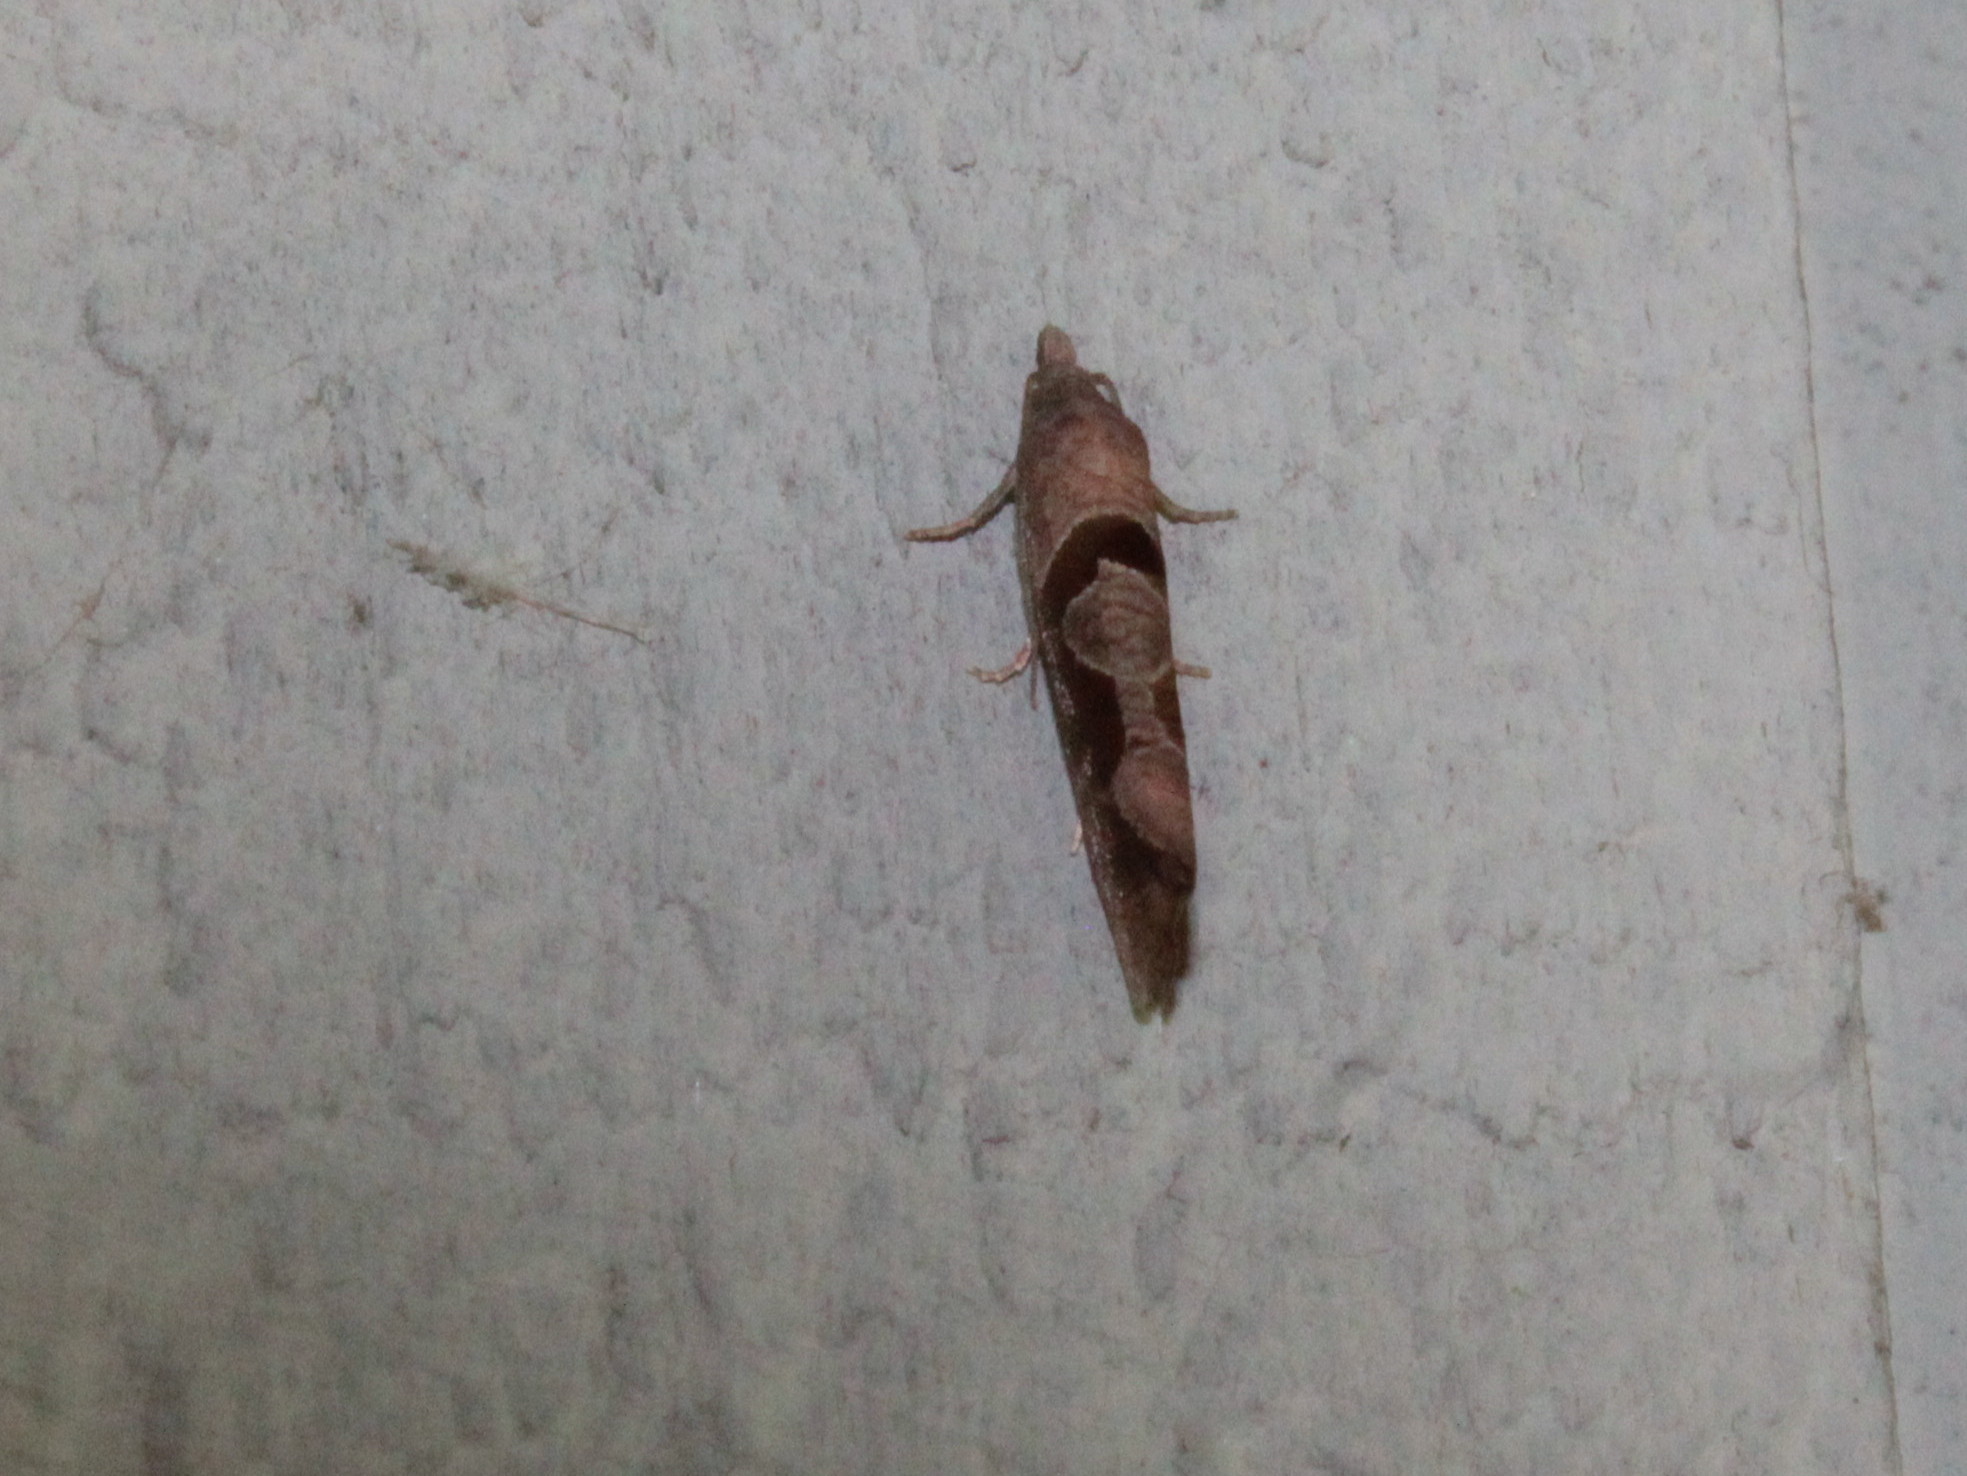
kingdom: Animalia
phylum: Arthropoda
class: Insecta
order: Lepidoptera
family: Tortricidae
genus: Pelochrista
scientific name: Pelochrista similiana
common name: Similar eucosma
